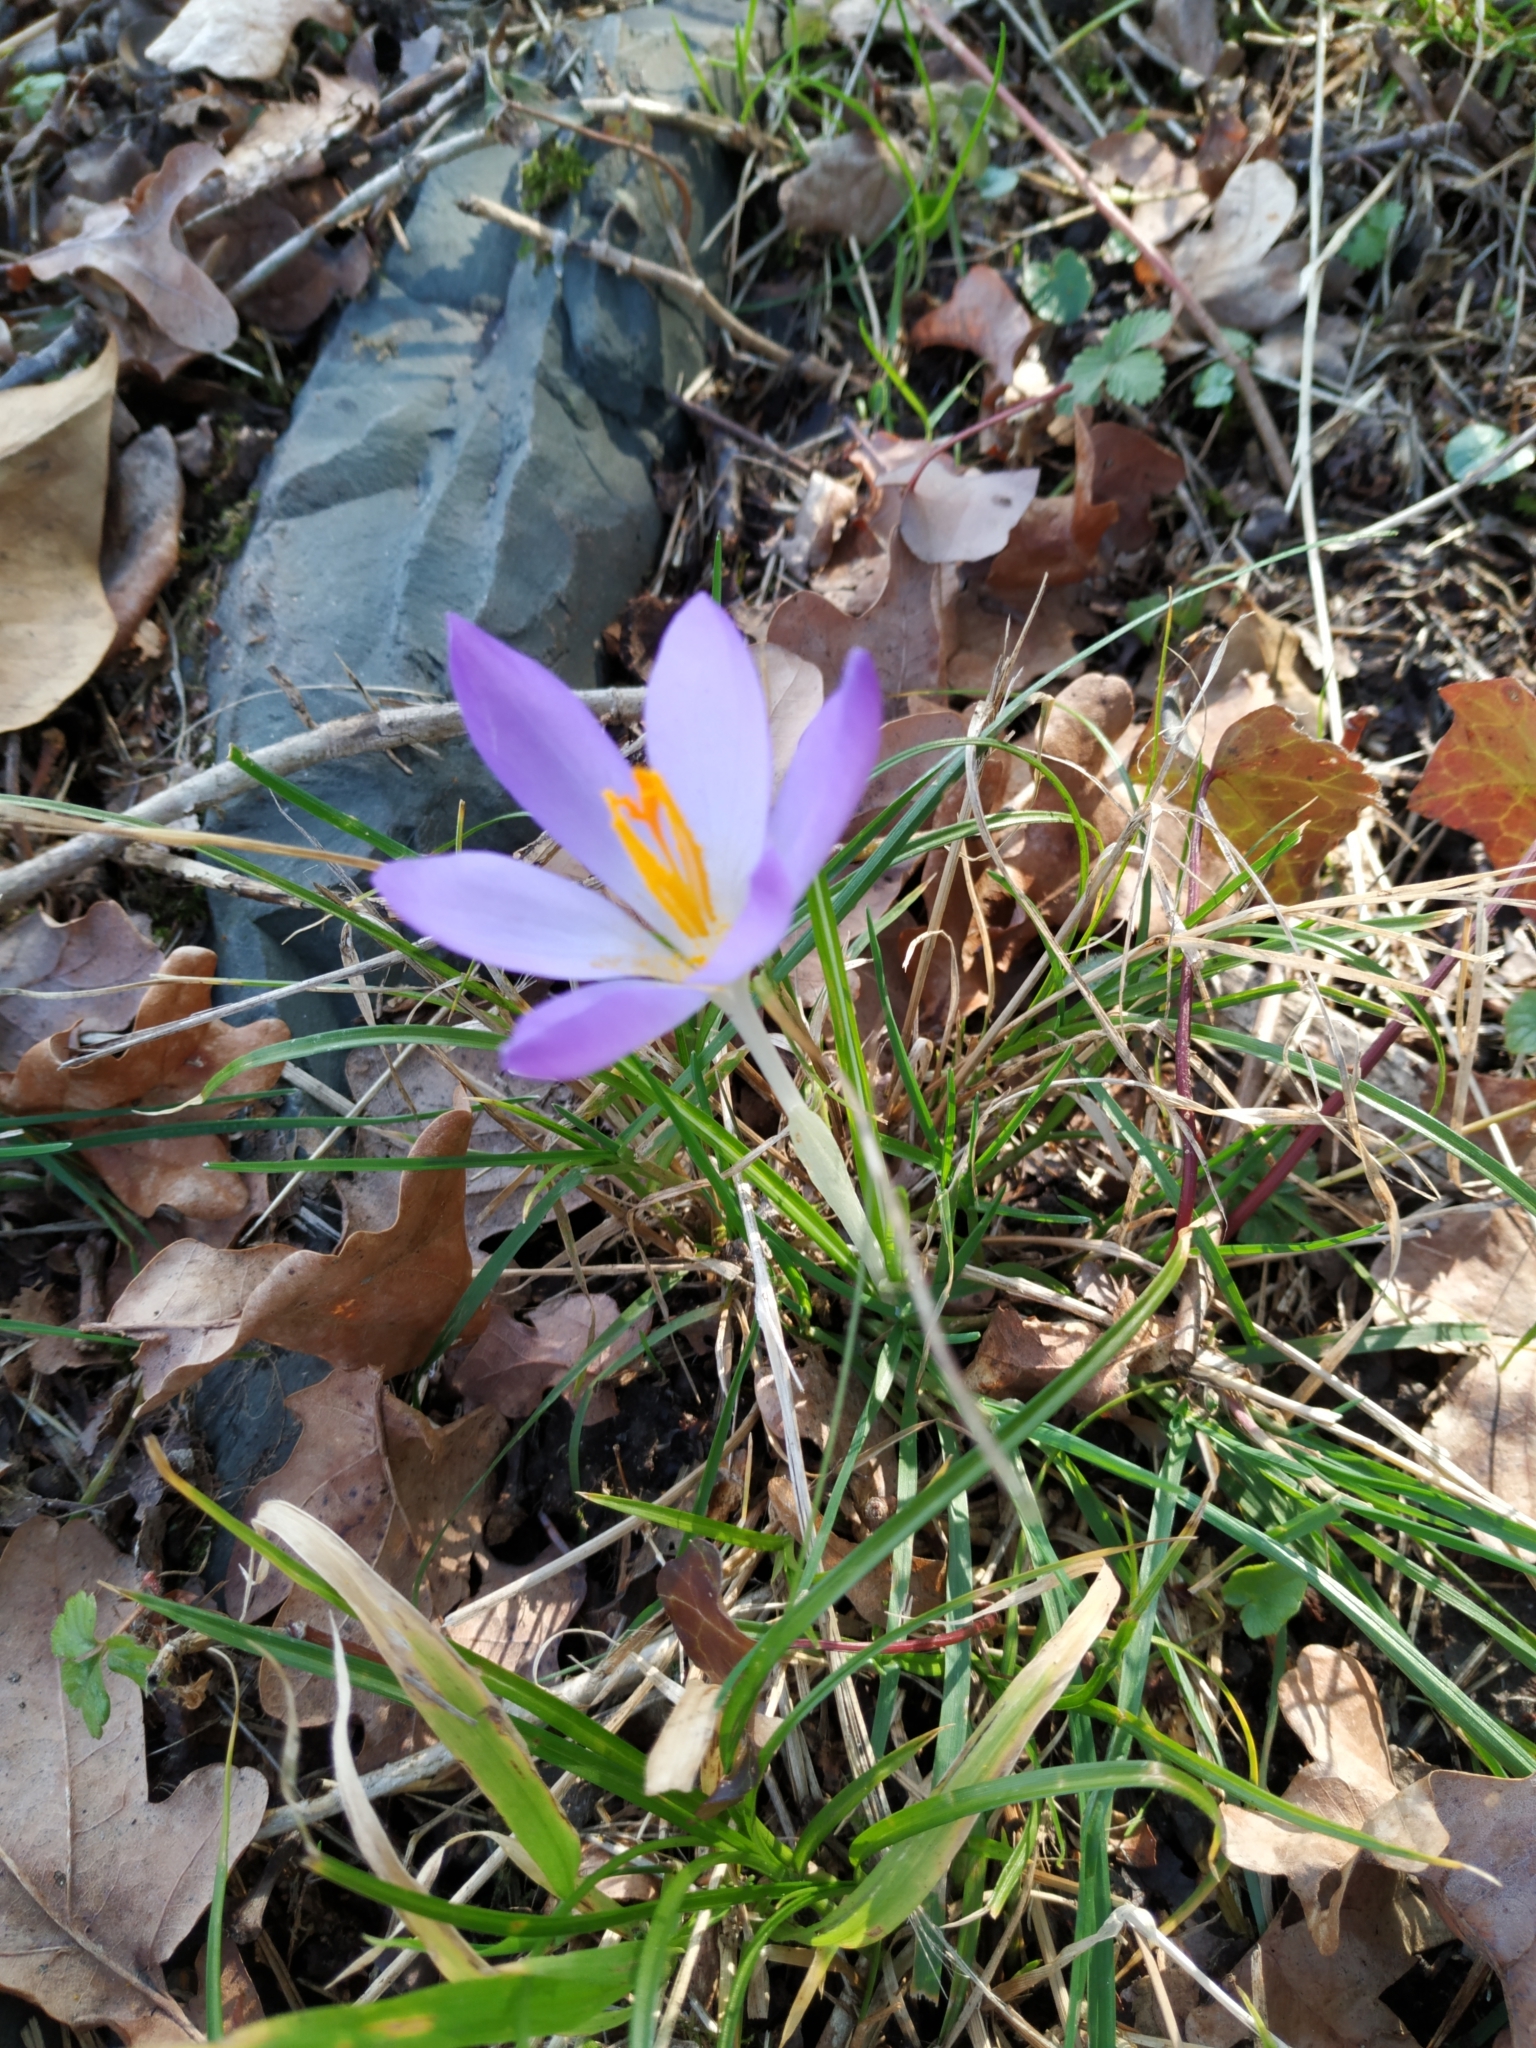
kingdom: Plantae
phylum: Tracheophyta
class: Liliopsida
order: Asparagales
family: Iridaceae
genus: Crocus
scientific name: Crocus tommasinianus
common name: Early crocus
